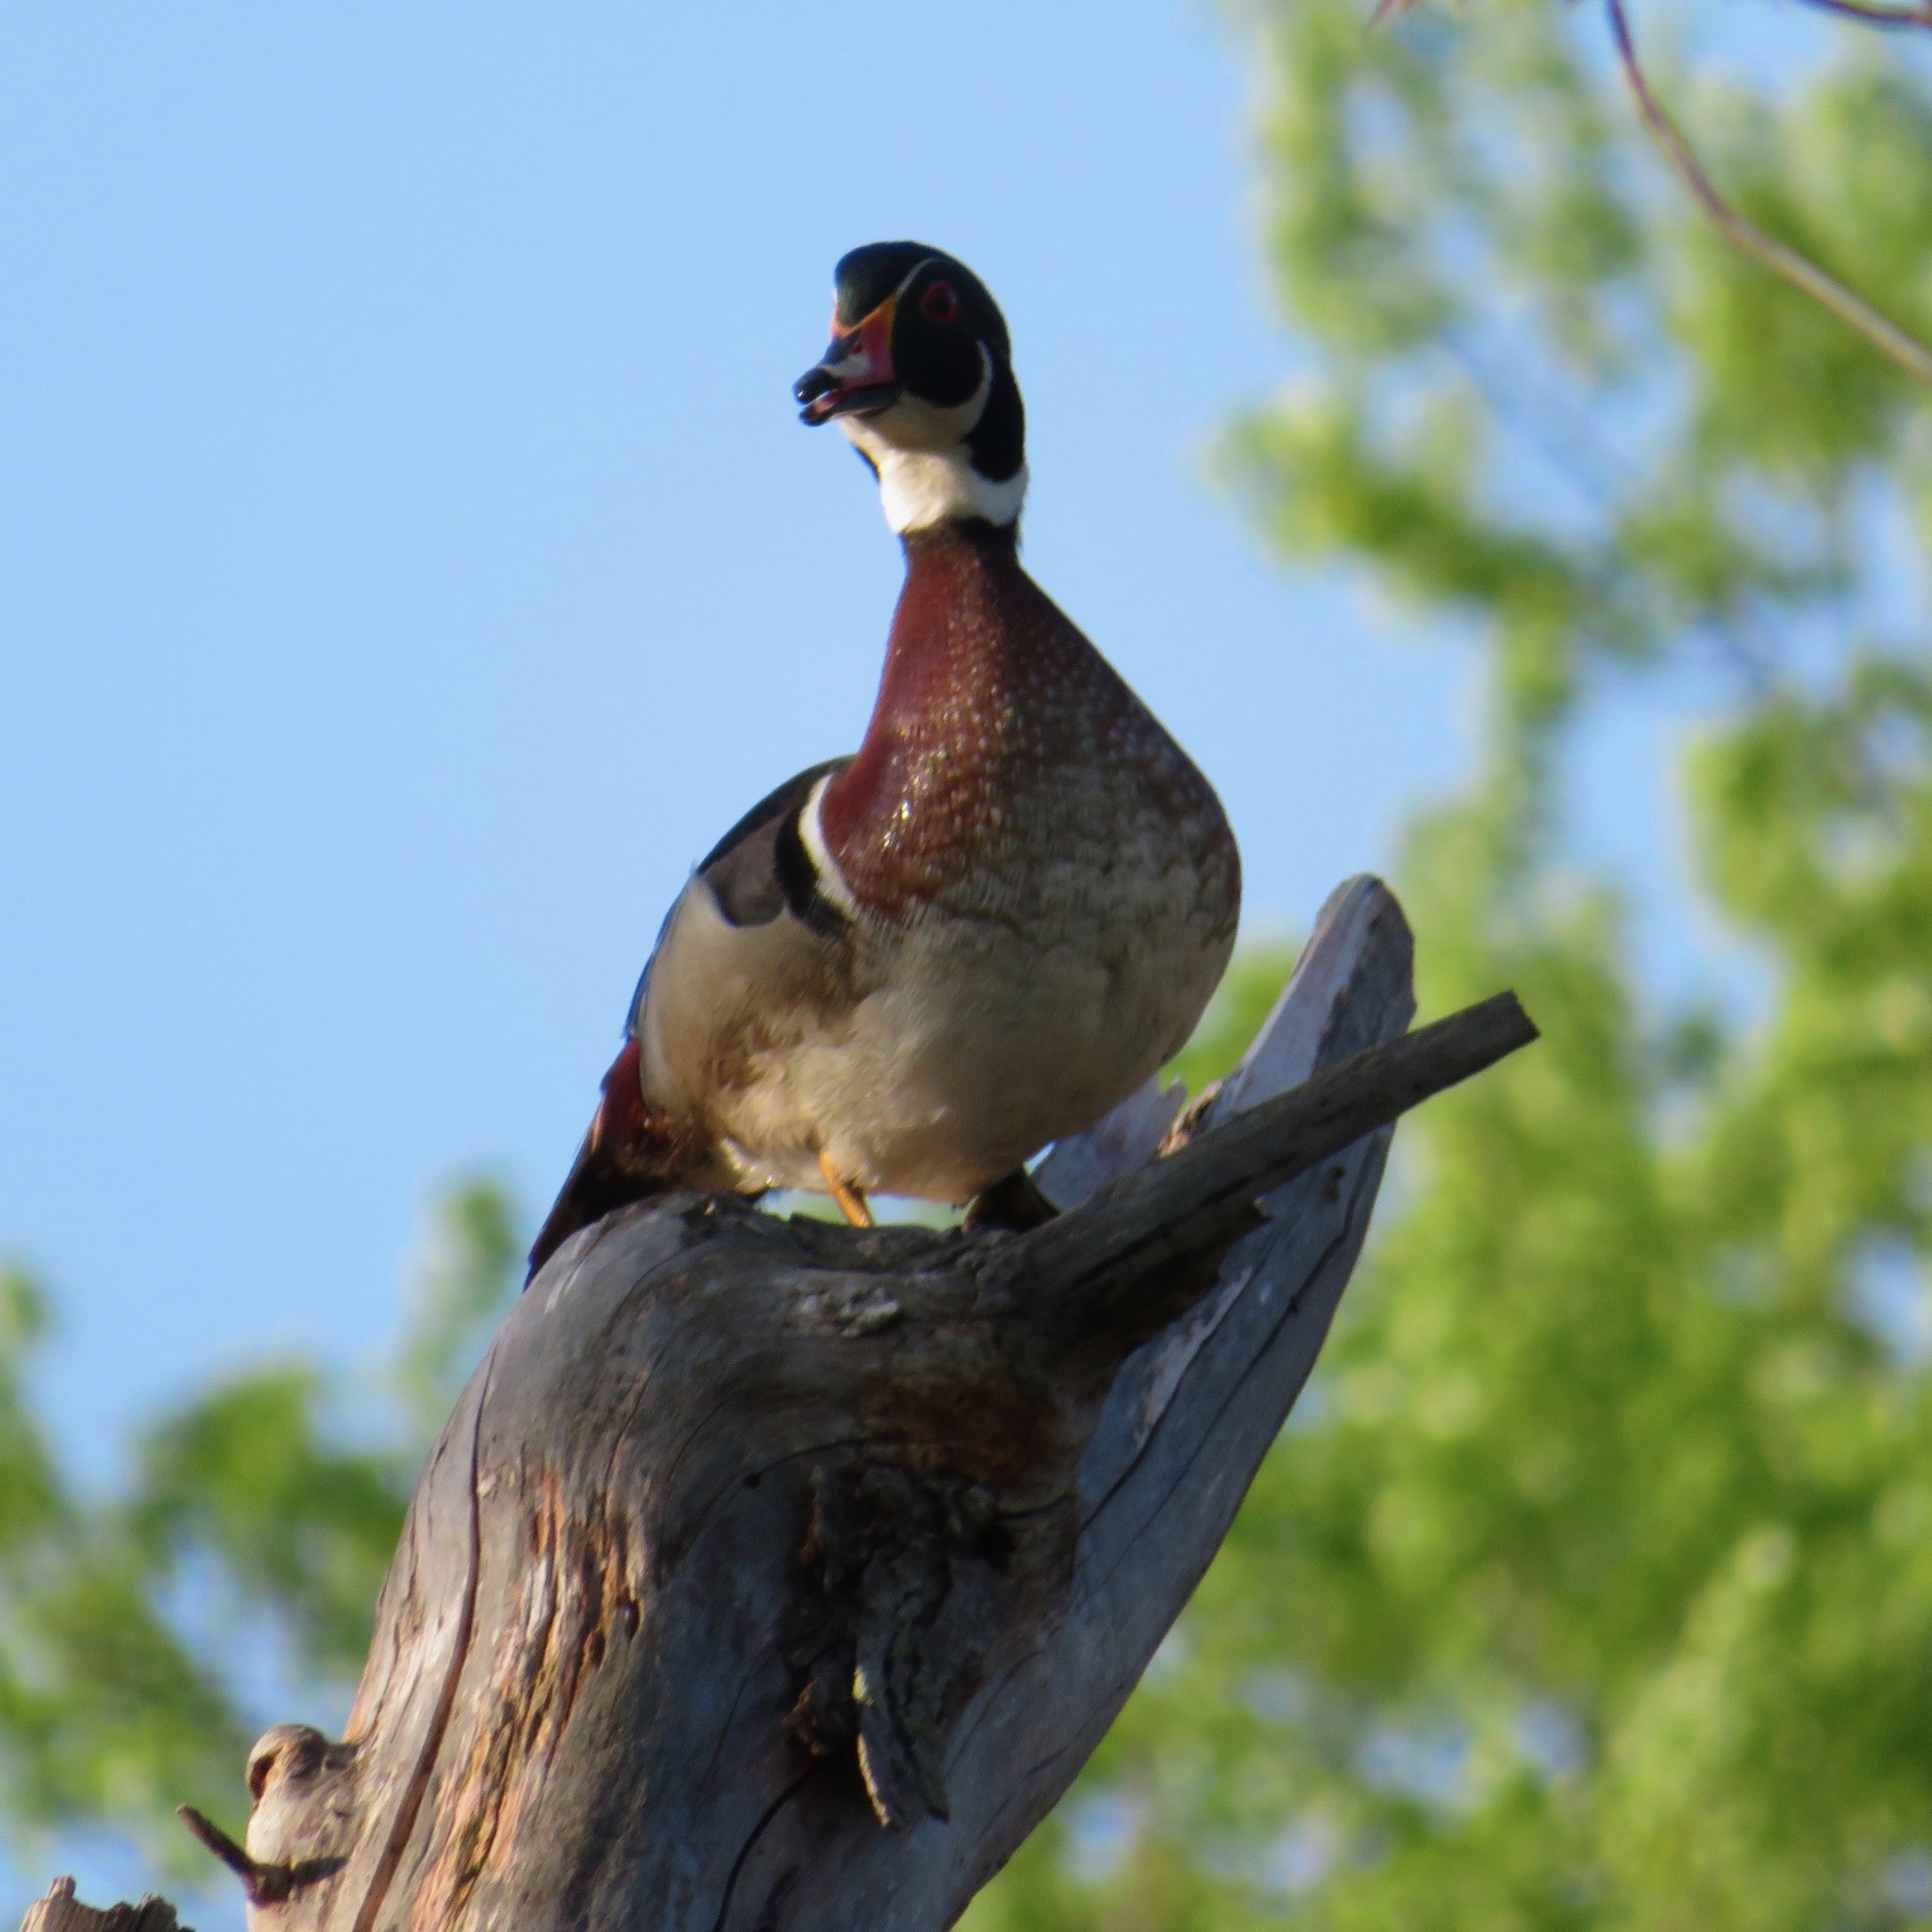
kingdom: Animalia
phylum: Chordata
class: Aves
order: Anseriformes
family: Anatidae
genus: Aix
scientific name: Aix sponsa
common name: Wood duck
